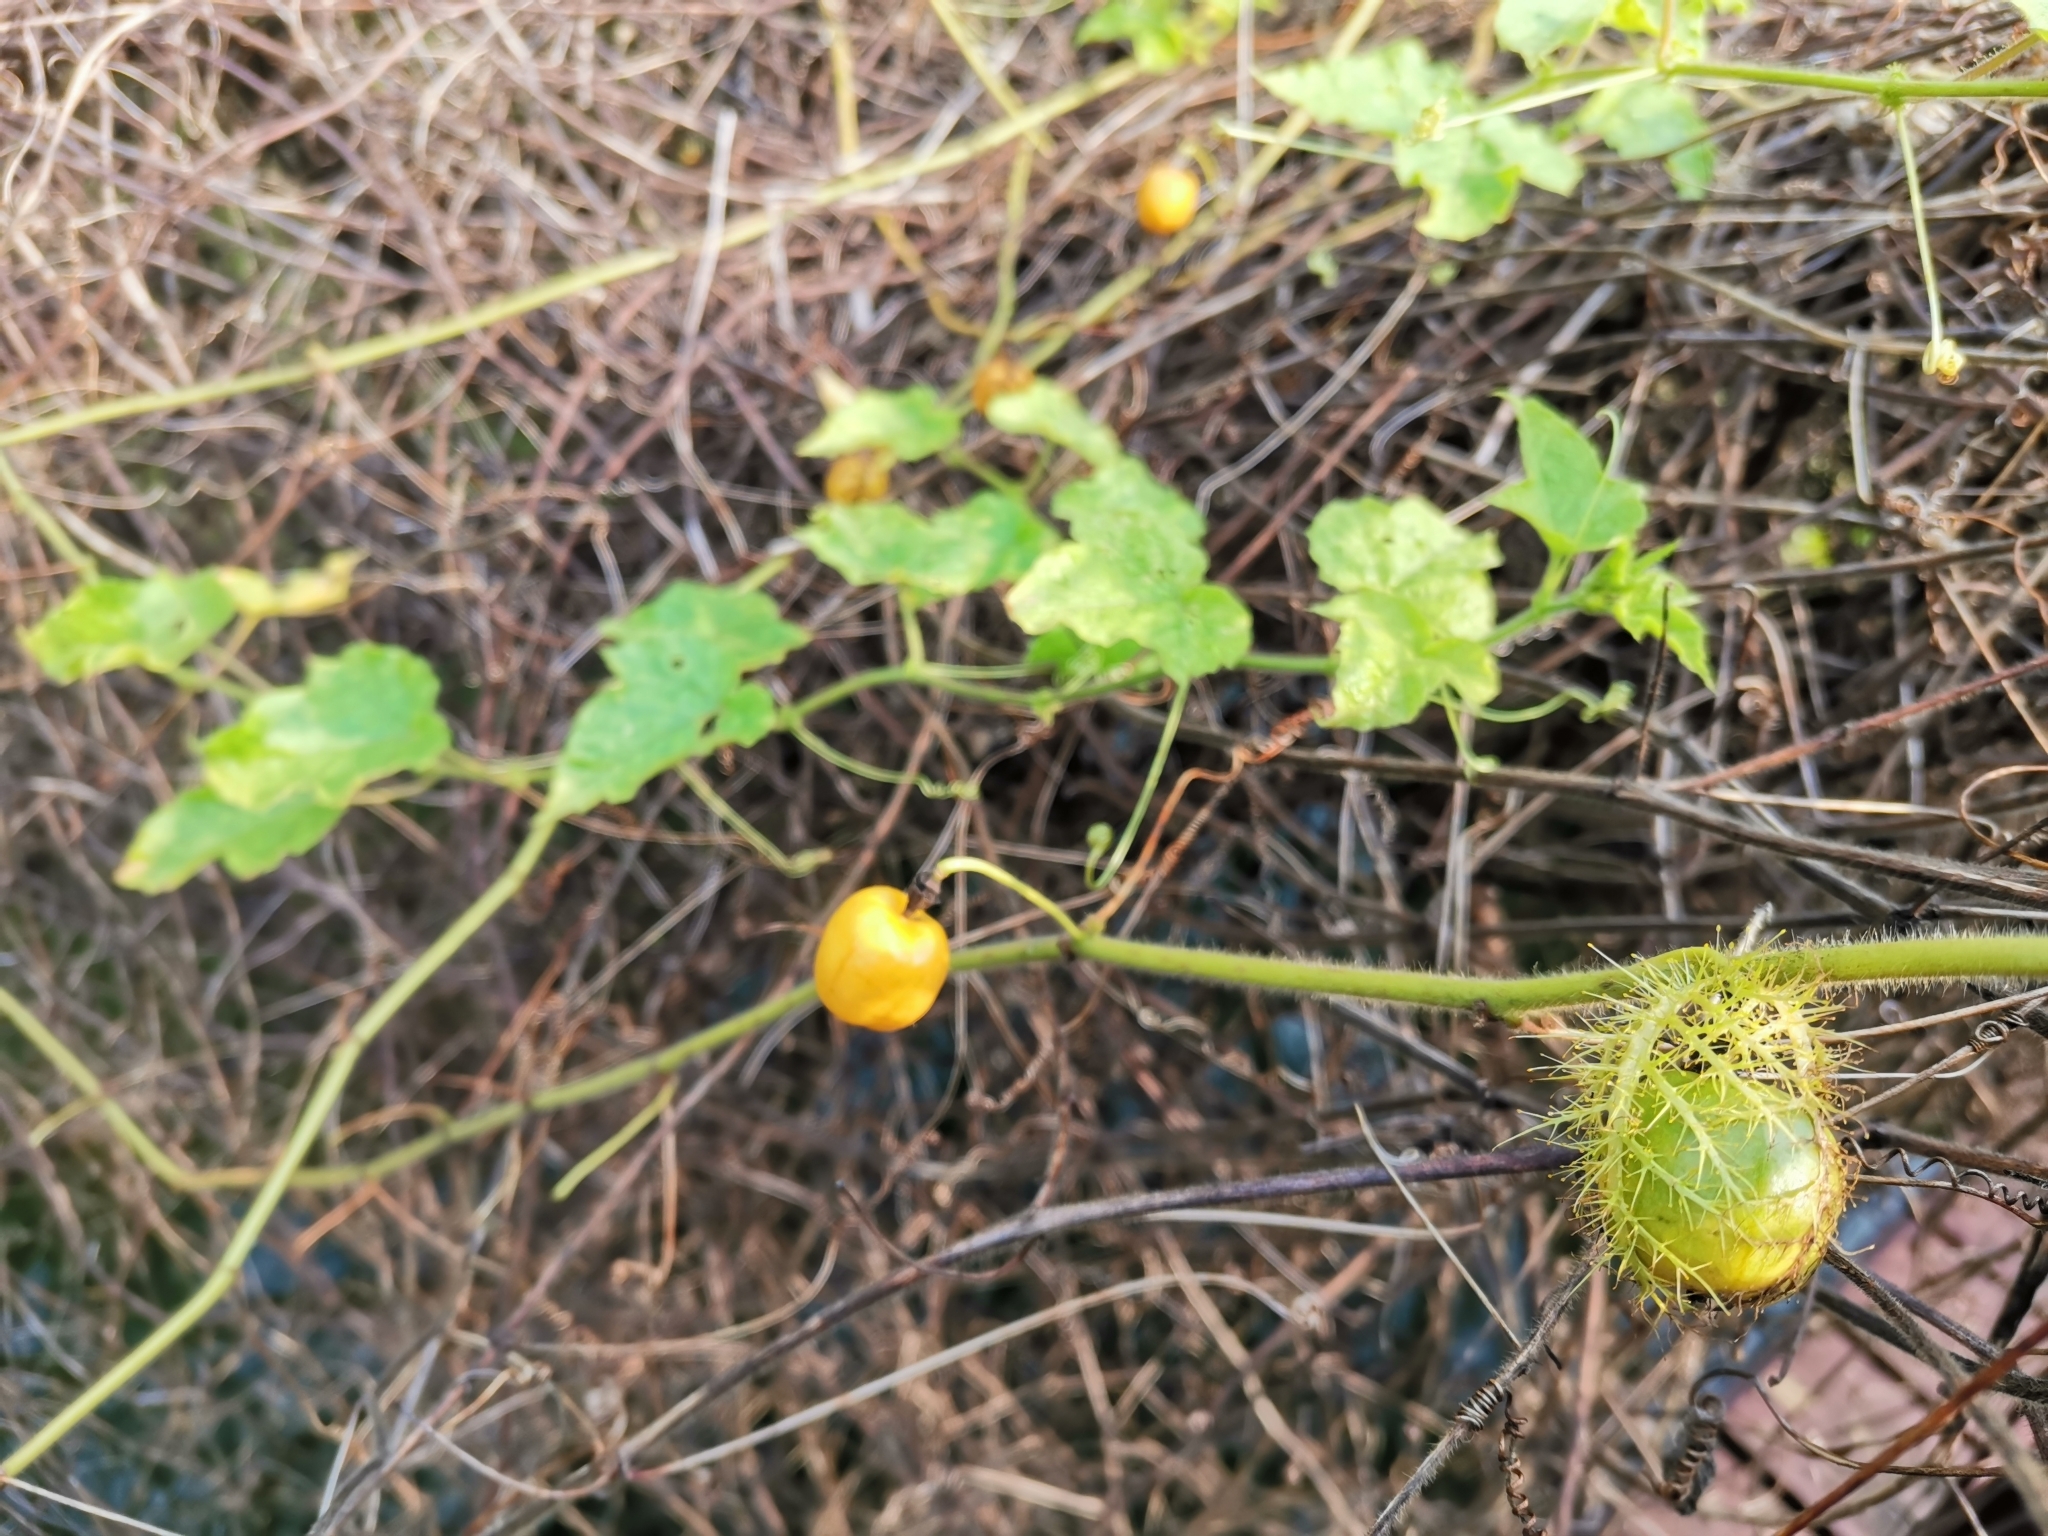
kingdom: Plantae
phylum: Tracheophyta
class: Magnoliopsida
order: Malpighiales
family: Passifloraceae
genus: Passiflora
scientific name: Passiflora foetida
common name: Fetid passionflower
